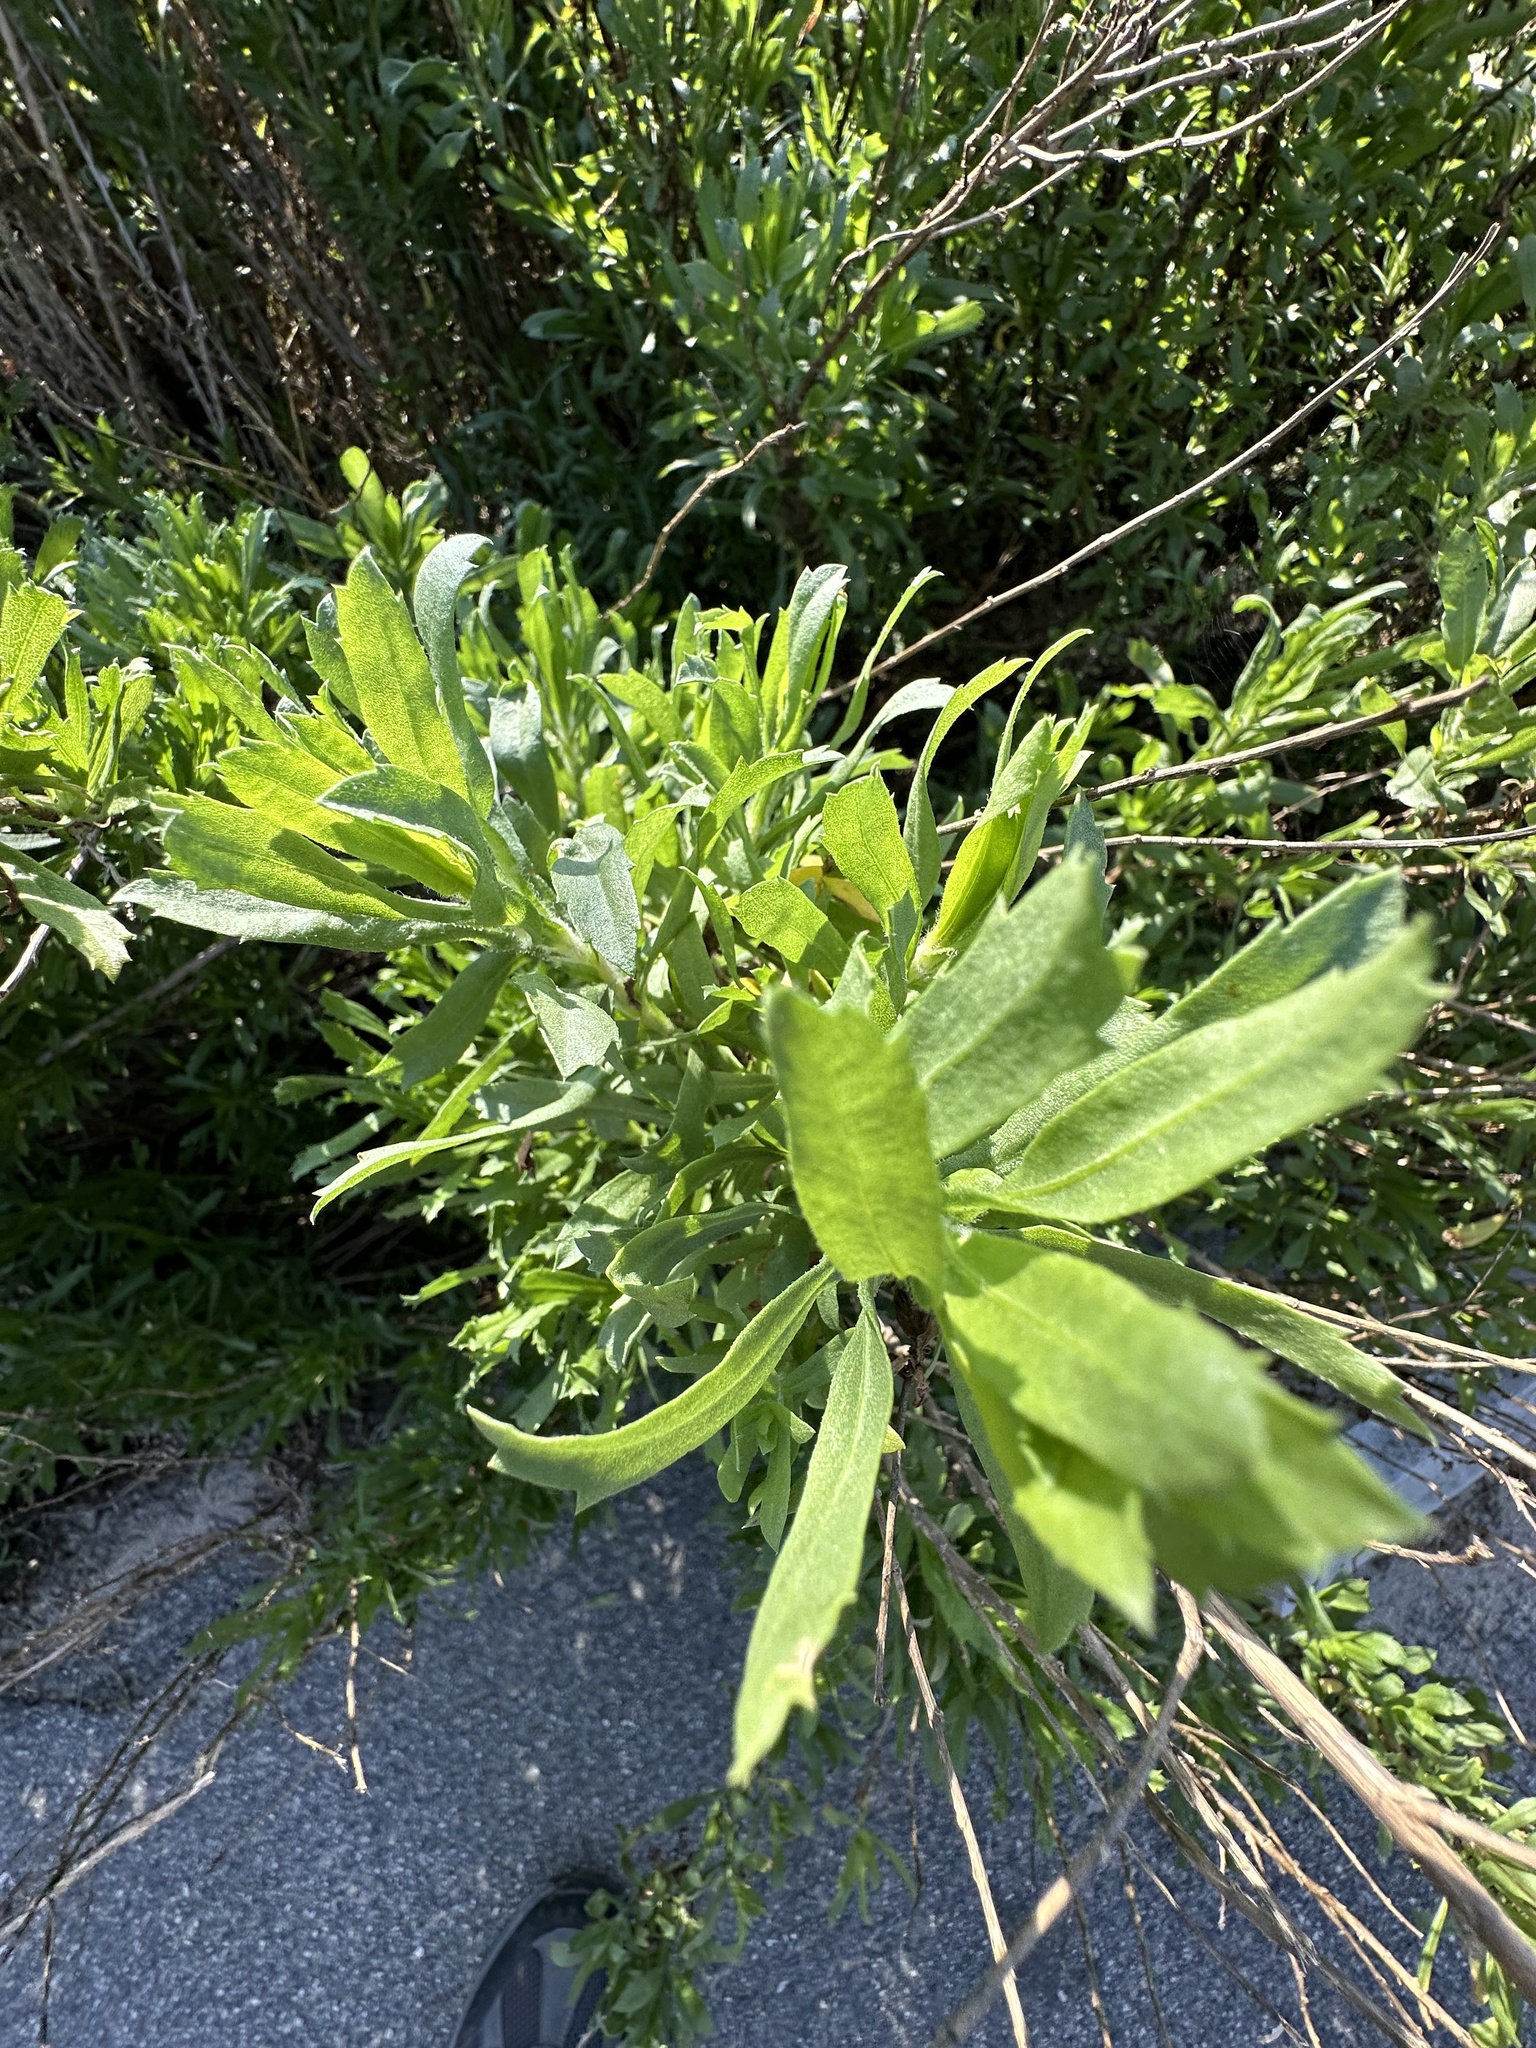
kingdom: Plantae
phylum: Tracheophyta
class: Magnoliopsida
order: Asterales
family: Asteraceae
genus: Isocoma
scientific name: Isocoma menziesii
